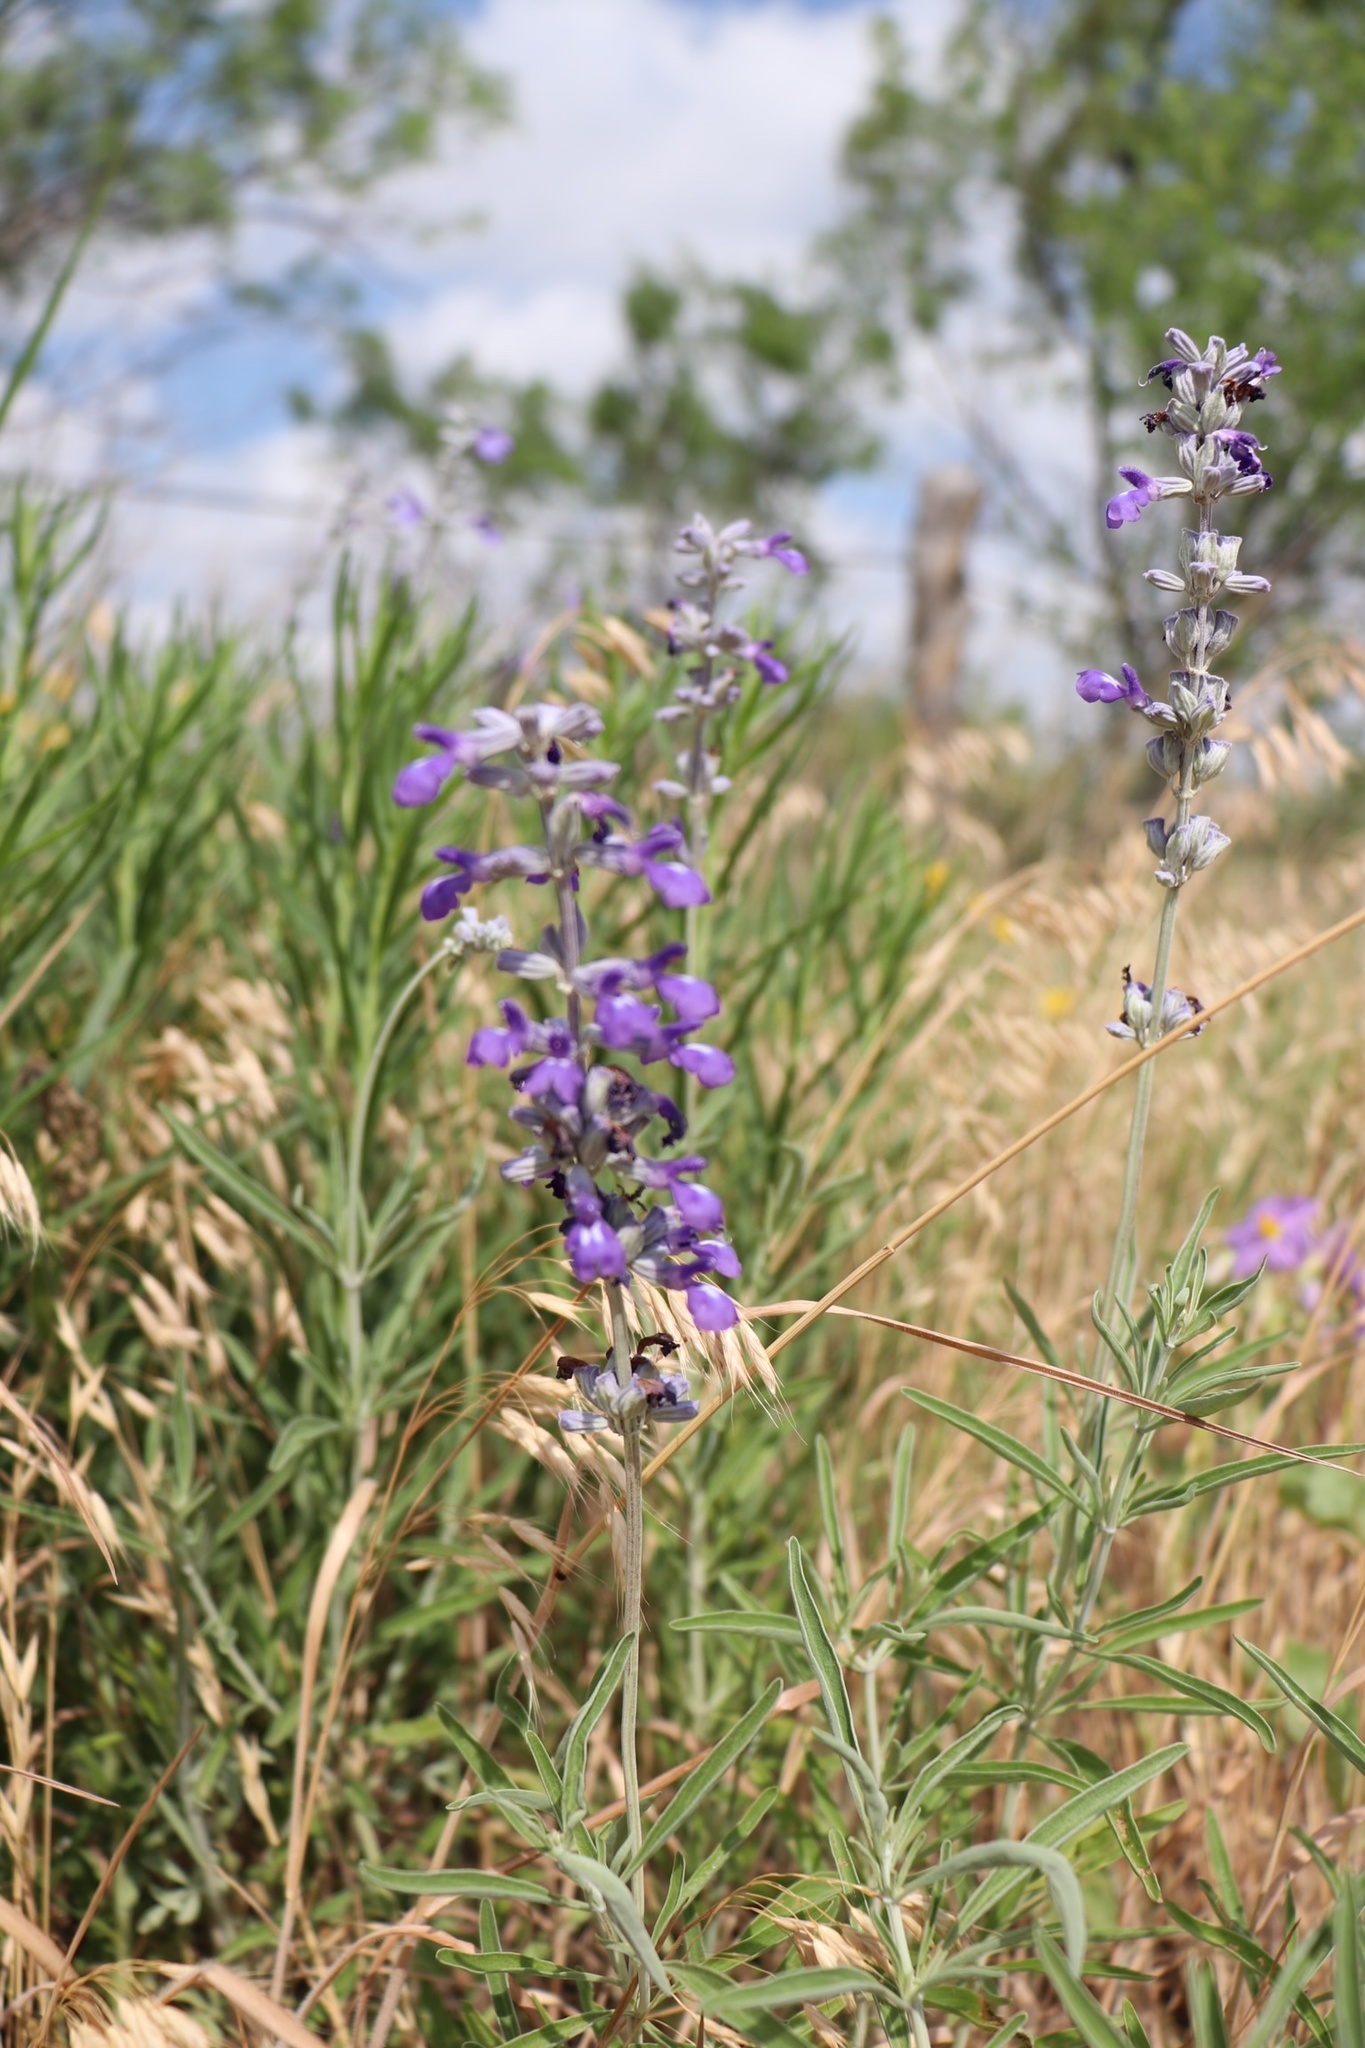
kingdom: Plantae
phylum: Tracheophyta
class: Magnoliopsida
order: Lamiales
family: Lamiaceae
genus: Salvia
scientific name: Salvia farinacea
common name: Mealy sage
